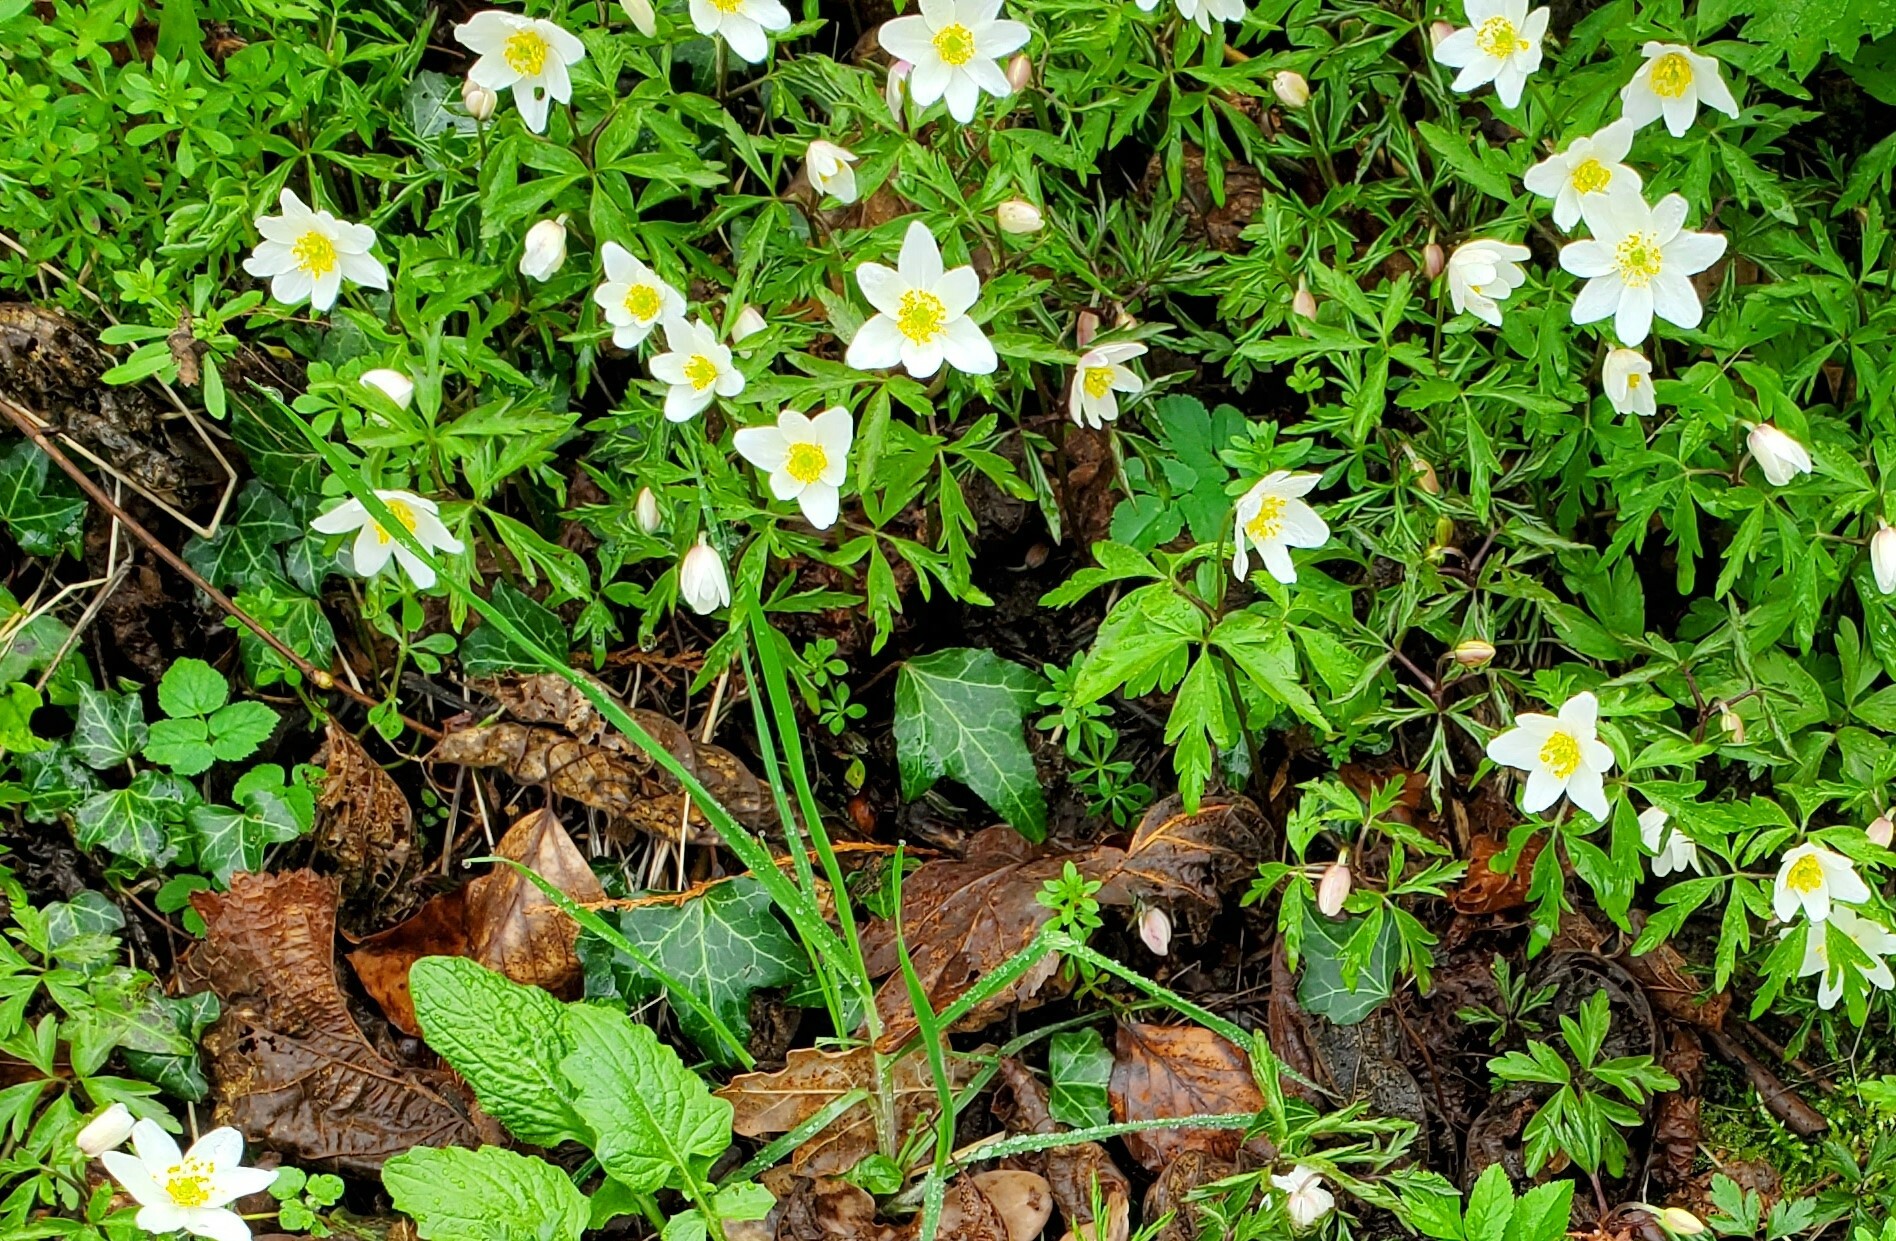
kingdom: Plantae
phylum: Tracheophyta
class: Magnoliopsida
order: Ranunculales
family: Ranunculaceae
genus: Anemone
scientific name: Anemone nemorosa
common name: Wood anemone
